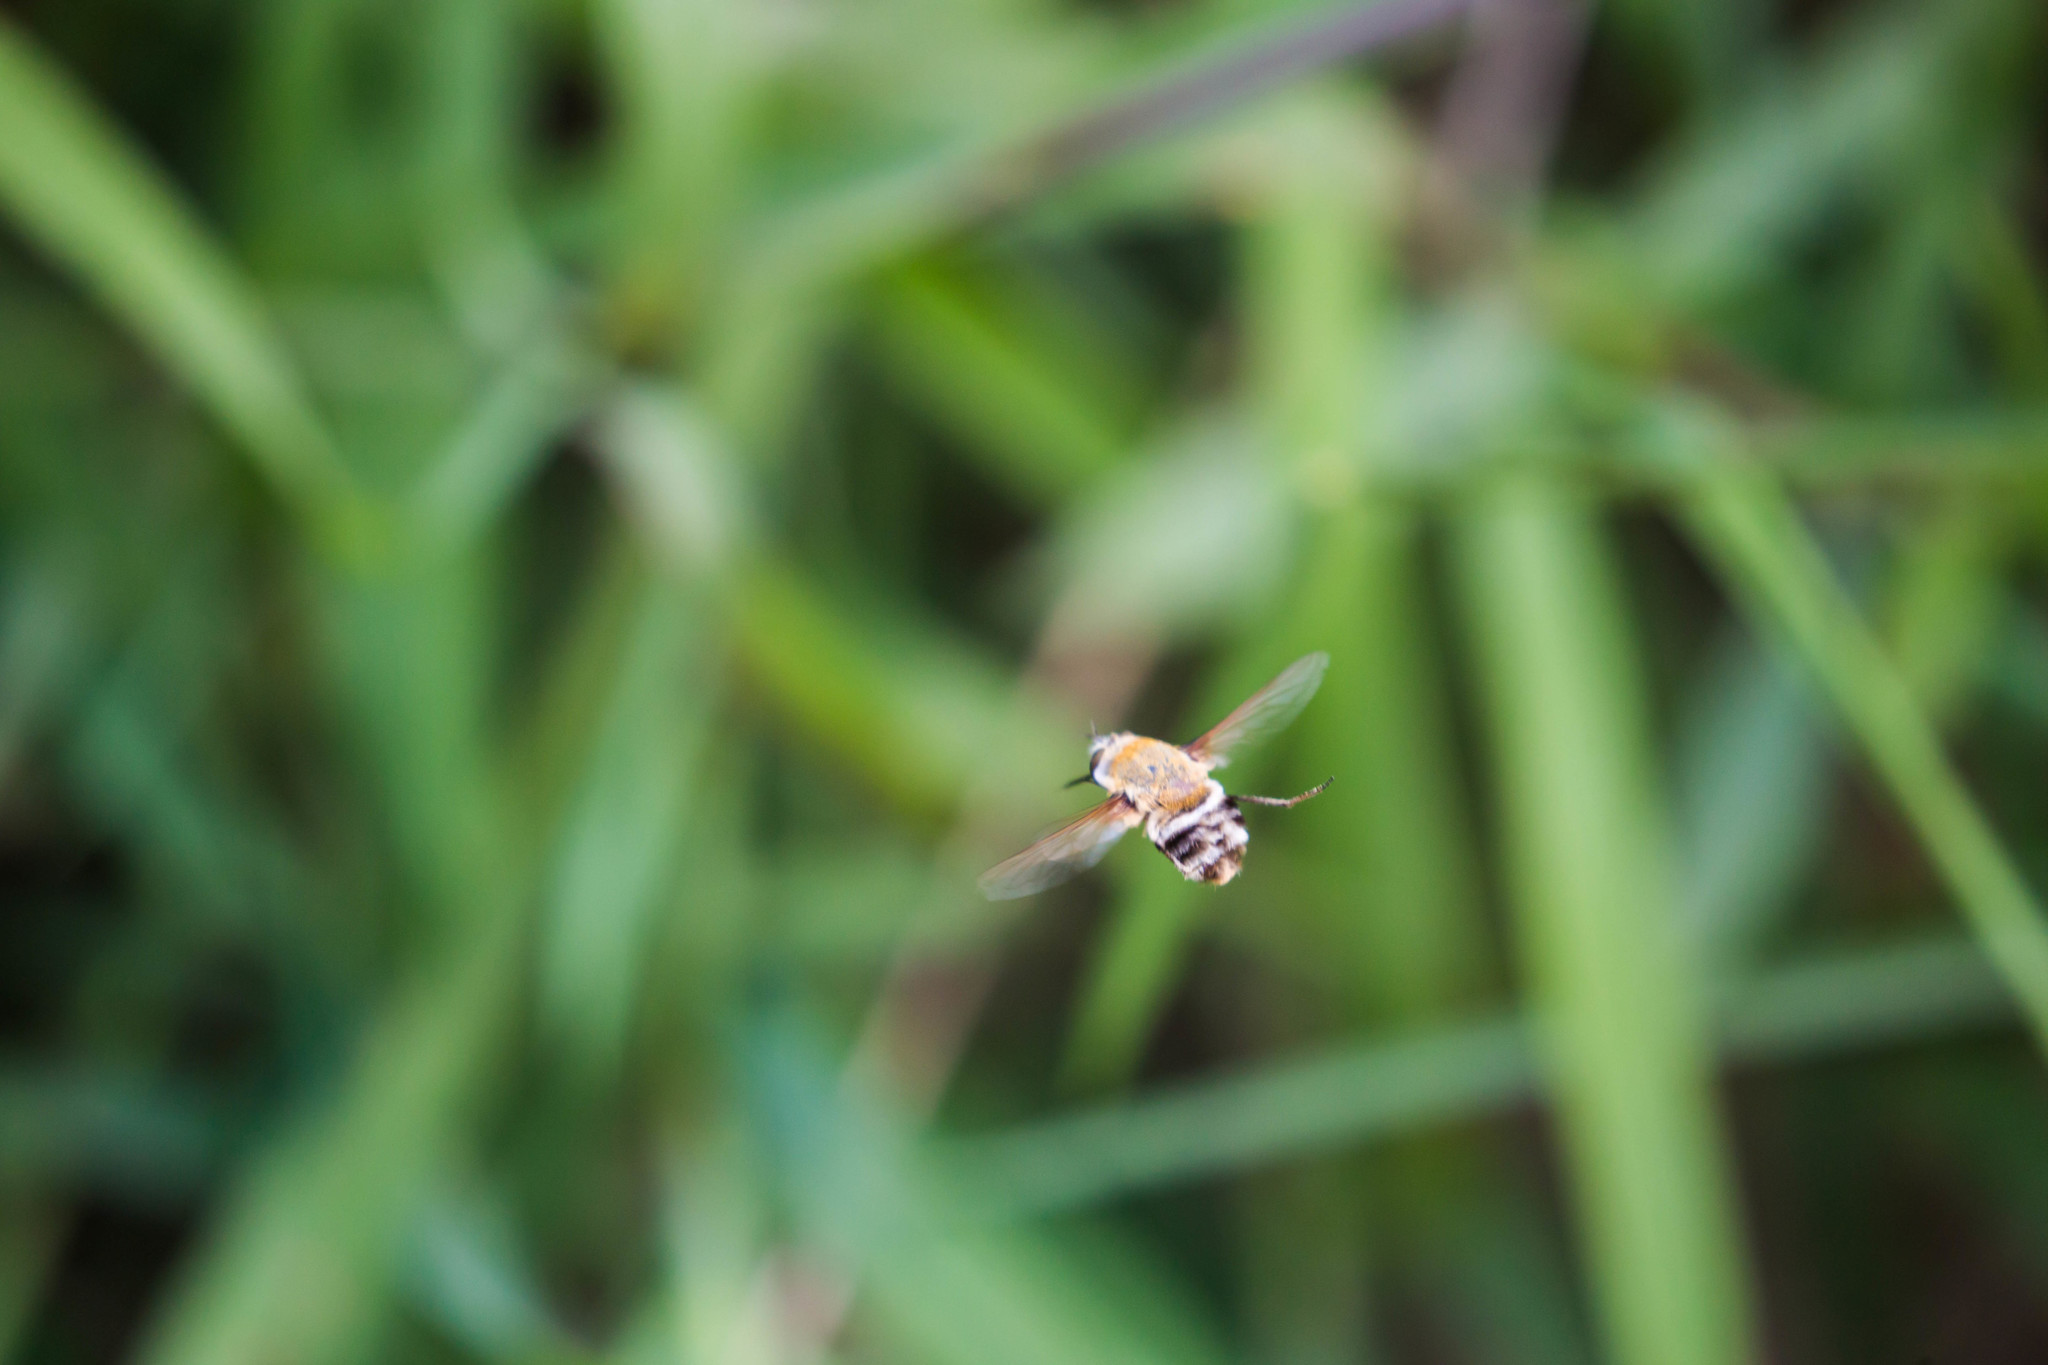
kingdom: Animalia
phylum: Arthropoda
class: Insecta
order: Diptera
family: Bombyliidae
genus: Heterostylum
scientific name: Heterostylum robustum
